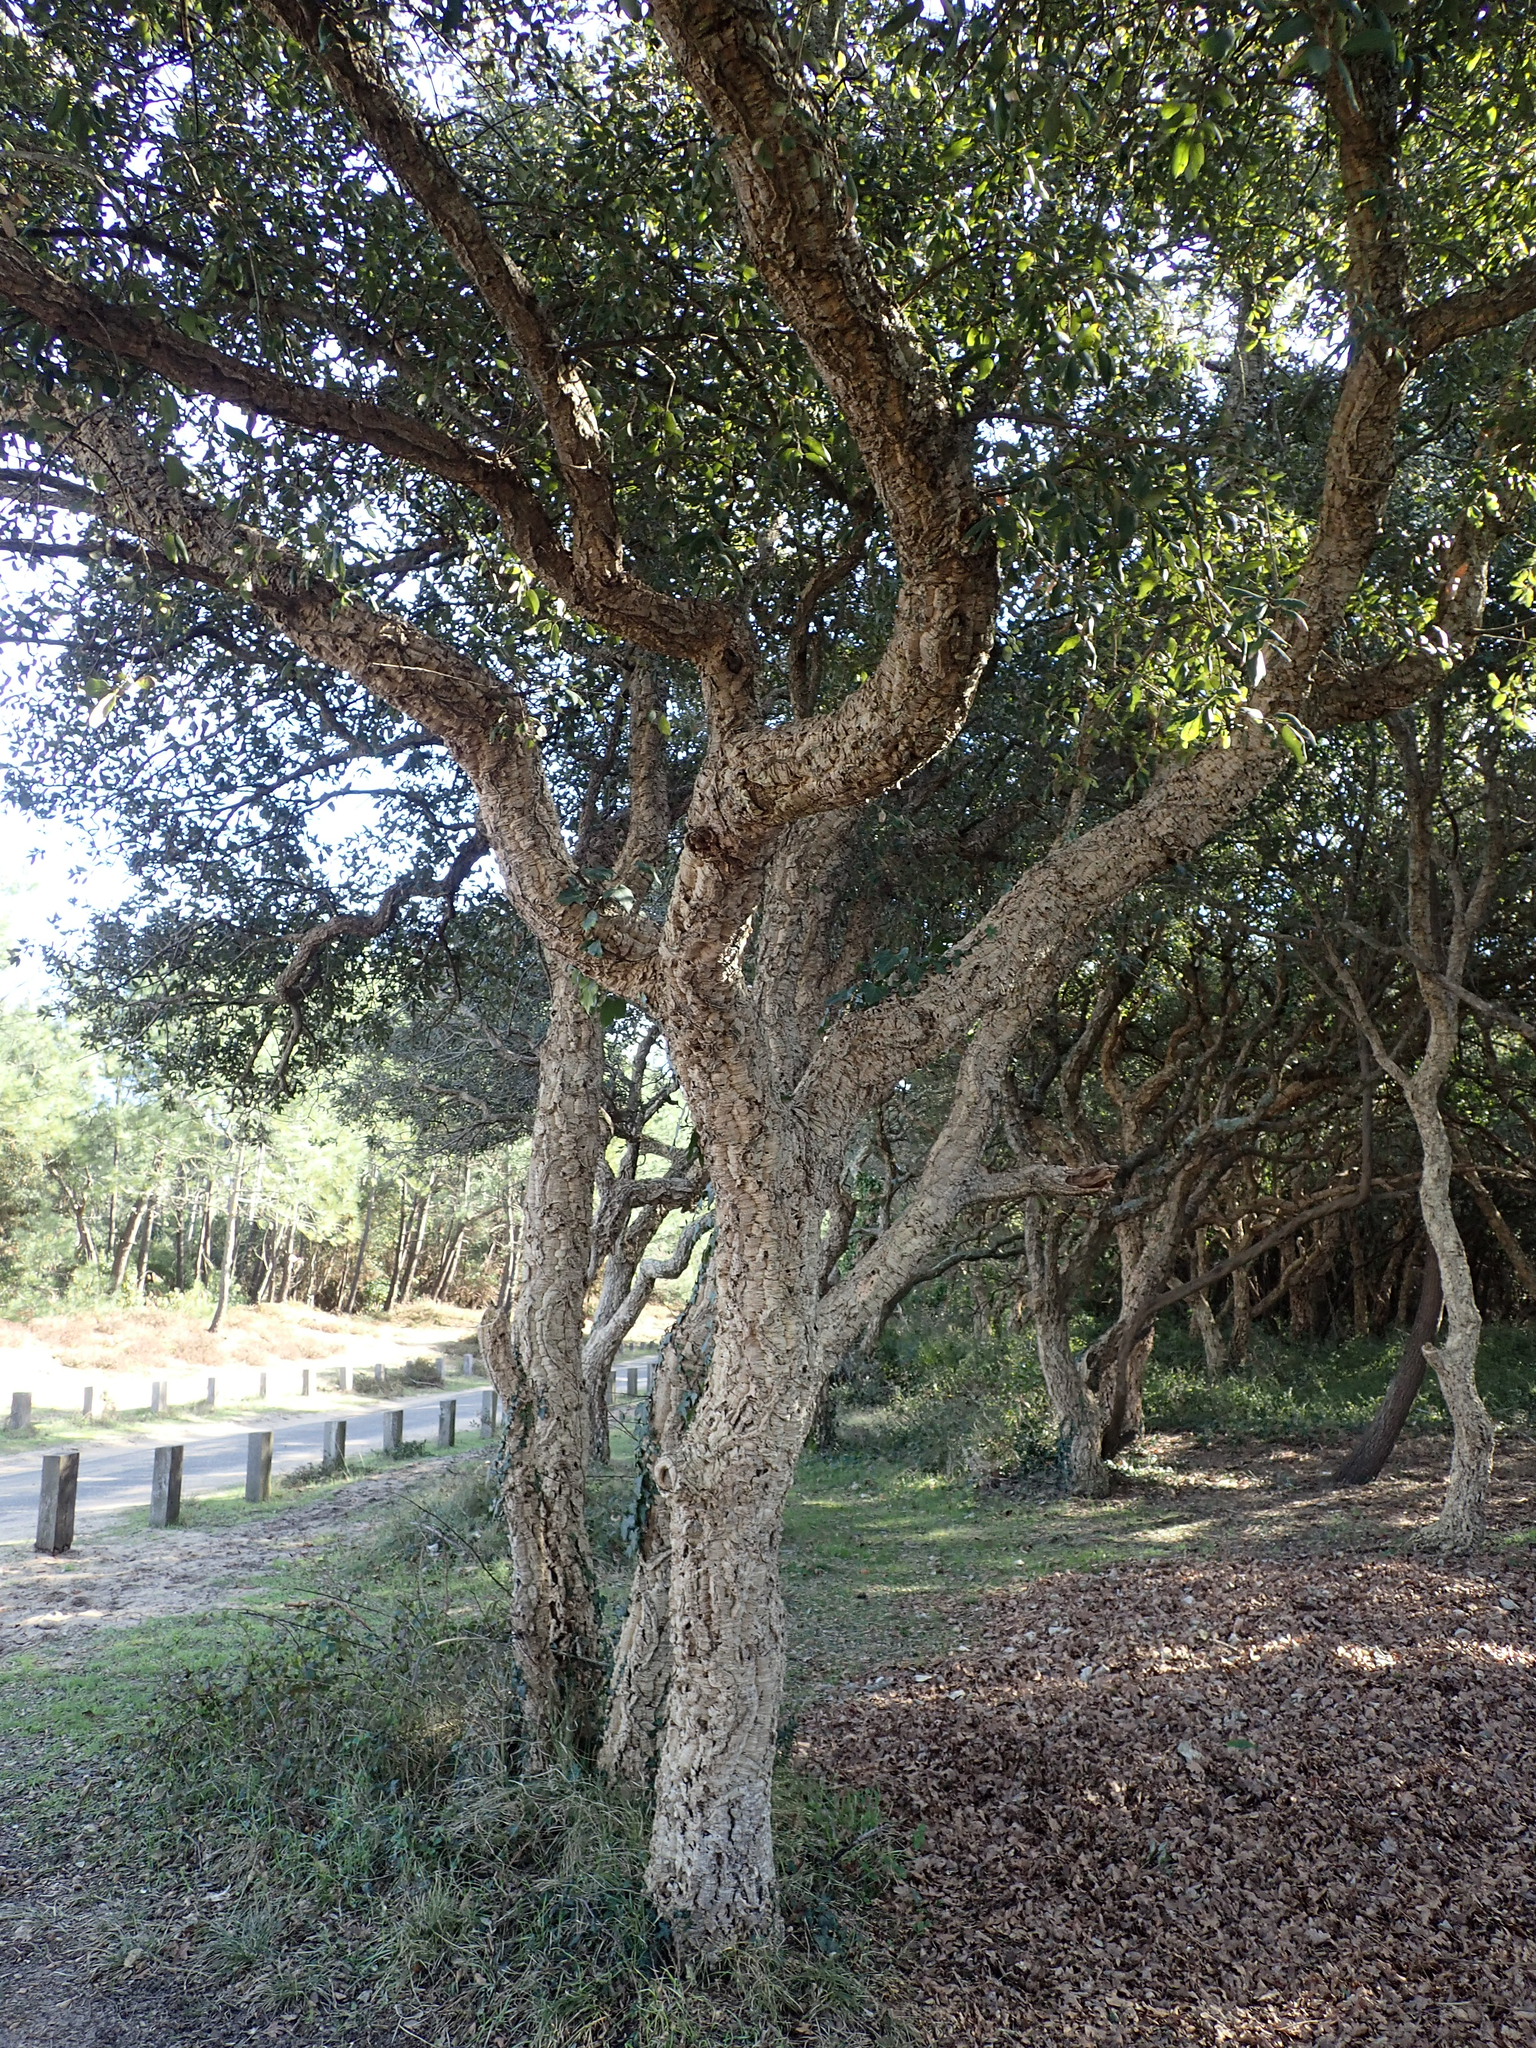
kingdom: Plantae
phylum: Tracheophyta
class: Magnoliopsida
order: Fagales
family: Fagaceae
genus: Quercus
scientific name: Quercus suber
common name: Cork oak
